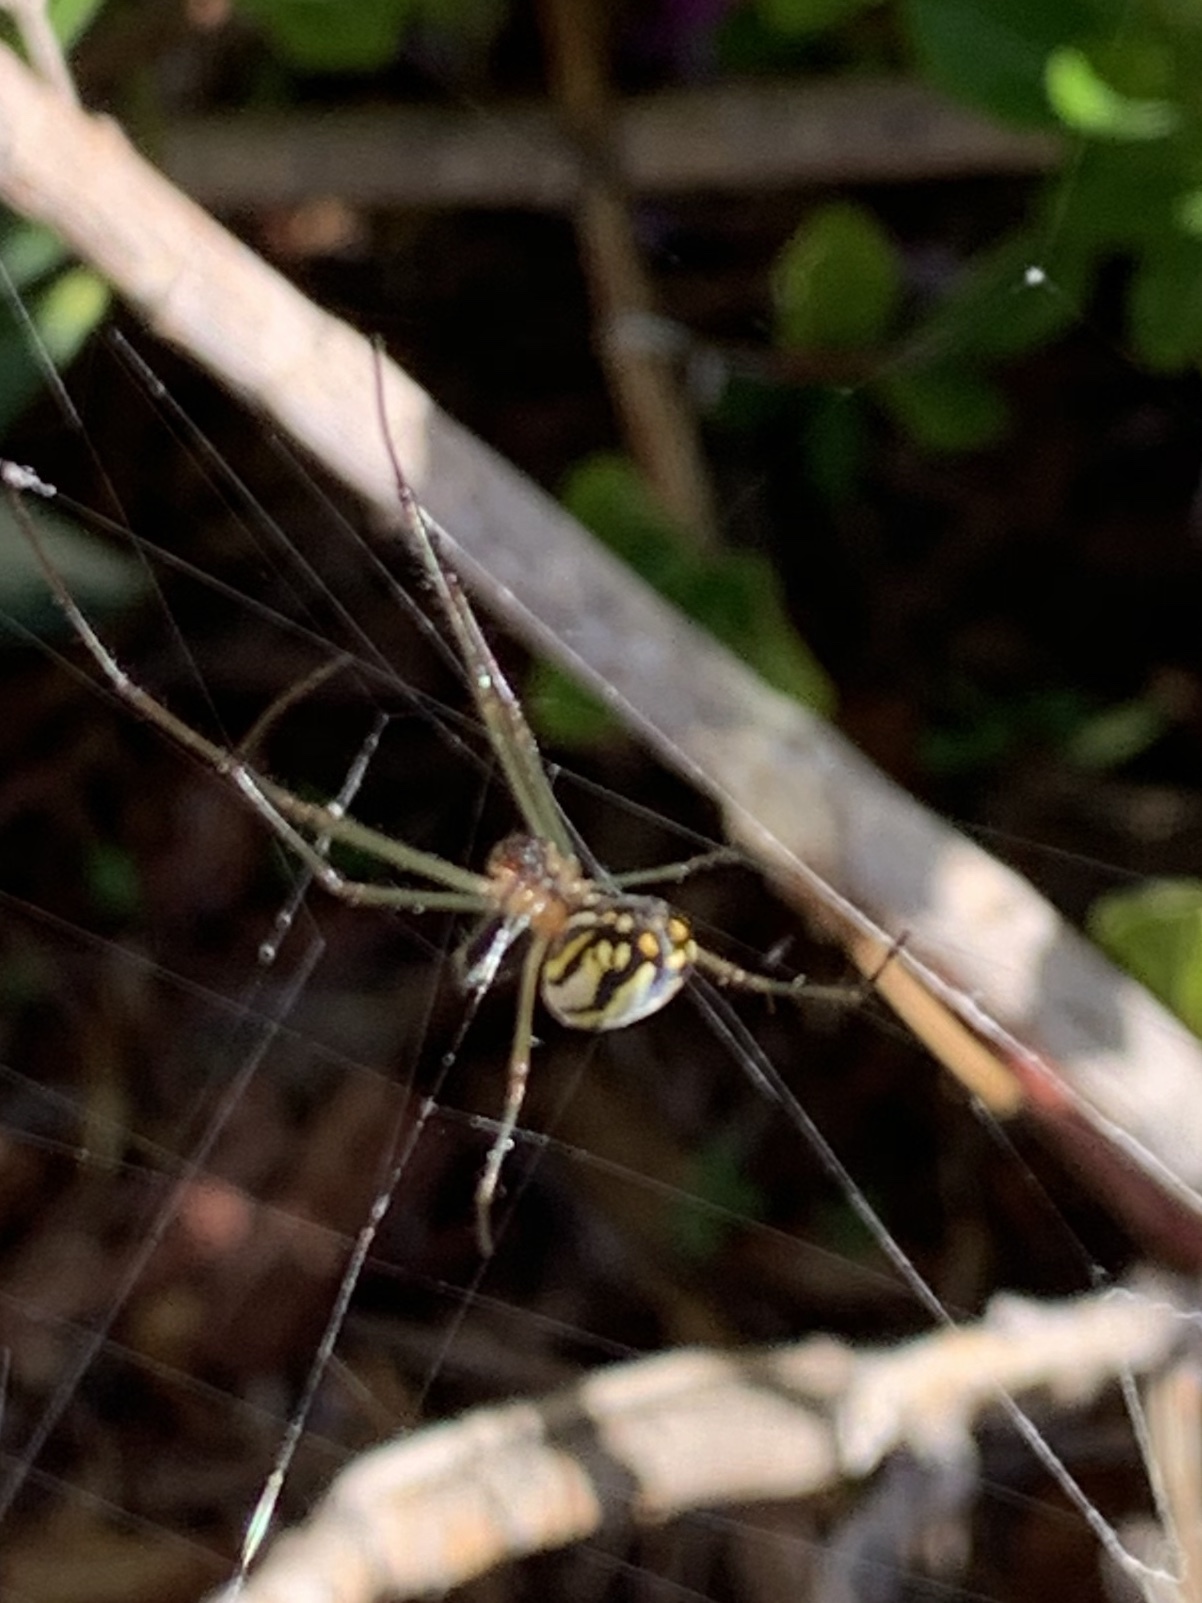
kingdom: Animalia
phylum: Arthropoda
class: Arachnida
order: Araneae
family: Tetragnathidae
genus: Leucauge
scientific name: Leucauge argyra
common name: Longjawed orb weavers
